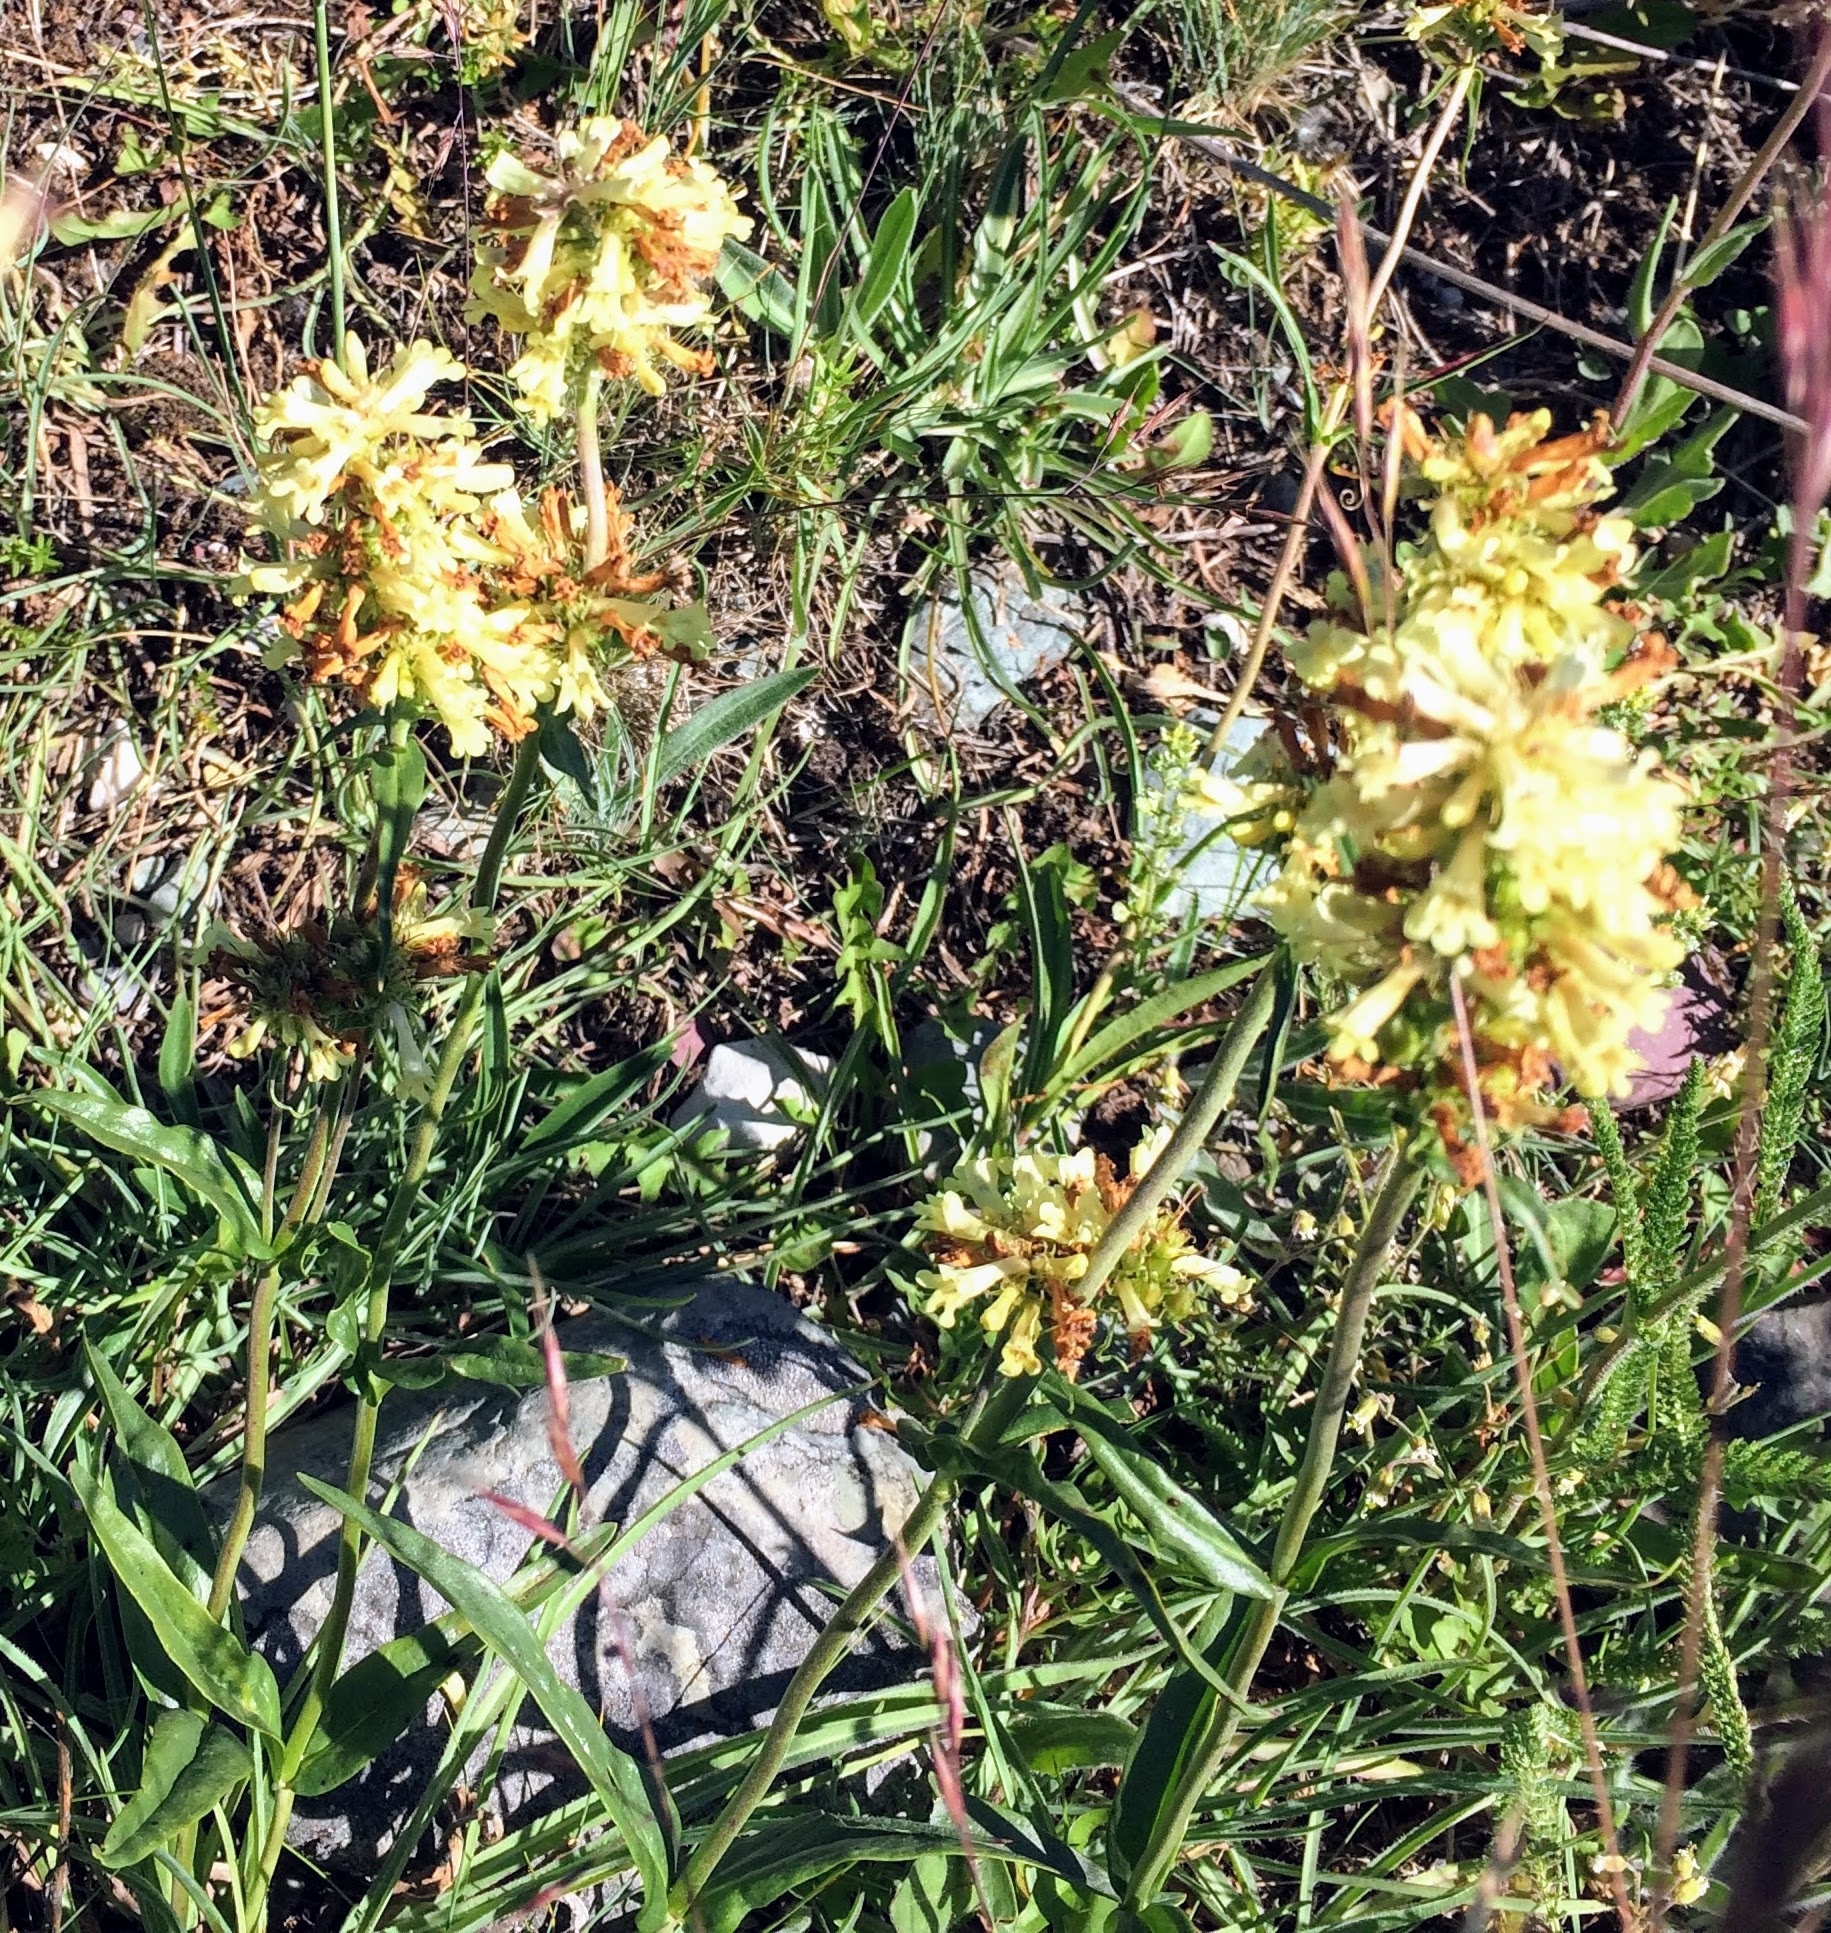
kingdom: Plantae
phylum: Tracheophyta
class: Magnoliopsida
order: Lamiales
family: Plantaginaceae
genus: Penstemon
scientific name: Penstemon confertus
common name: Lesser yellow beardtongue
